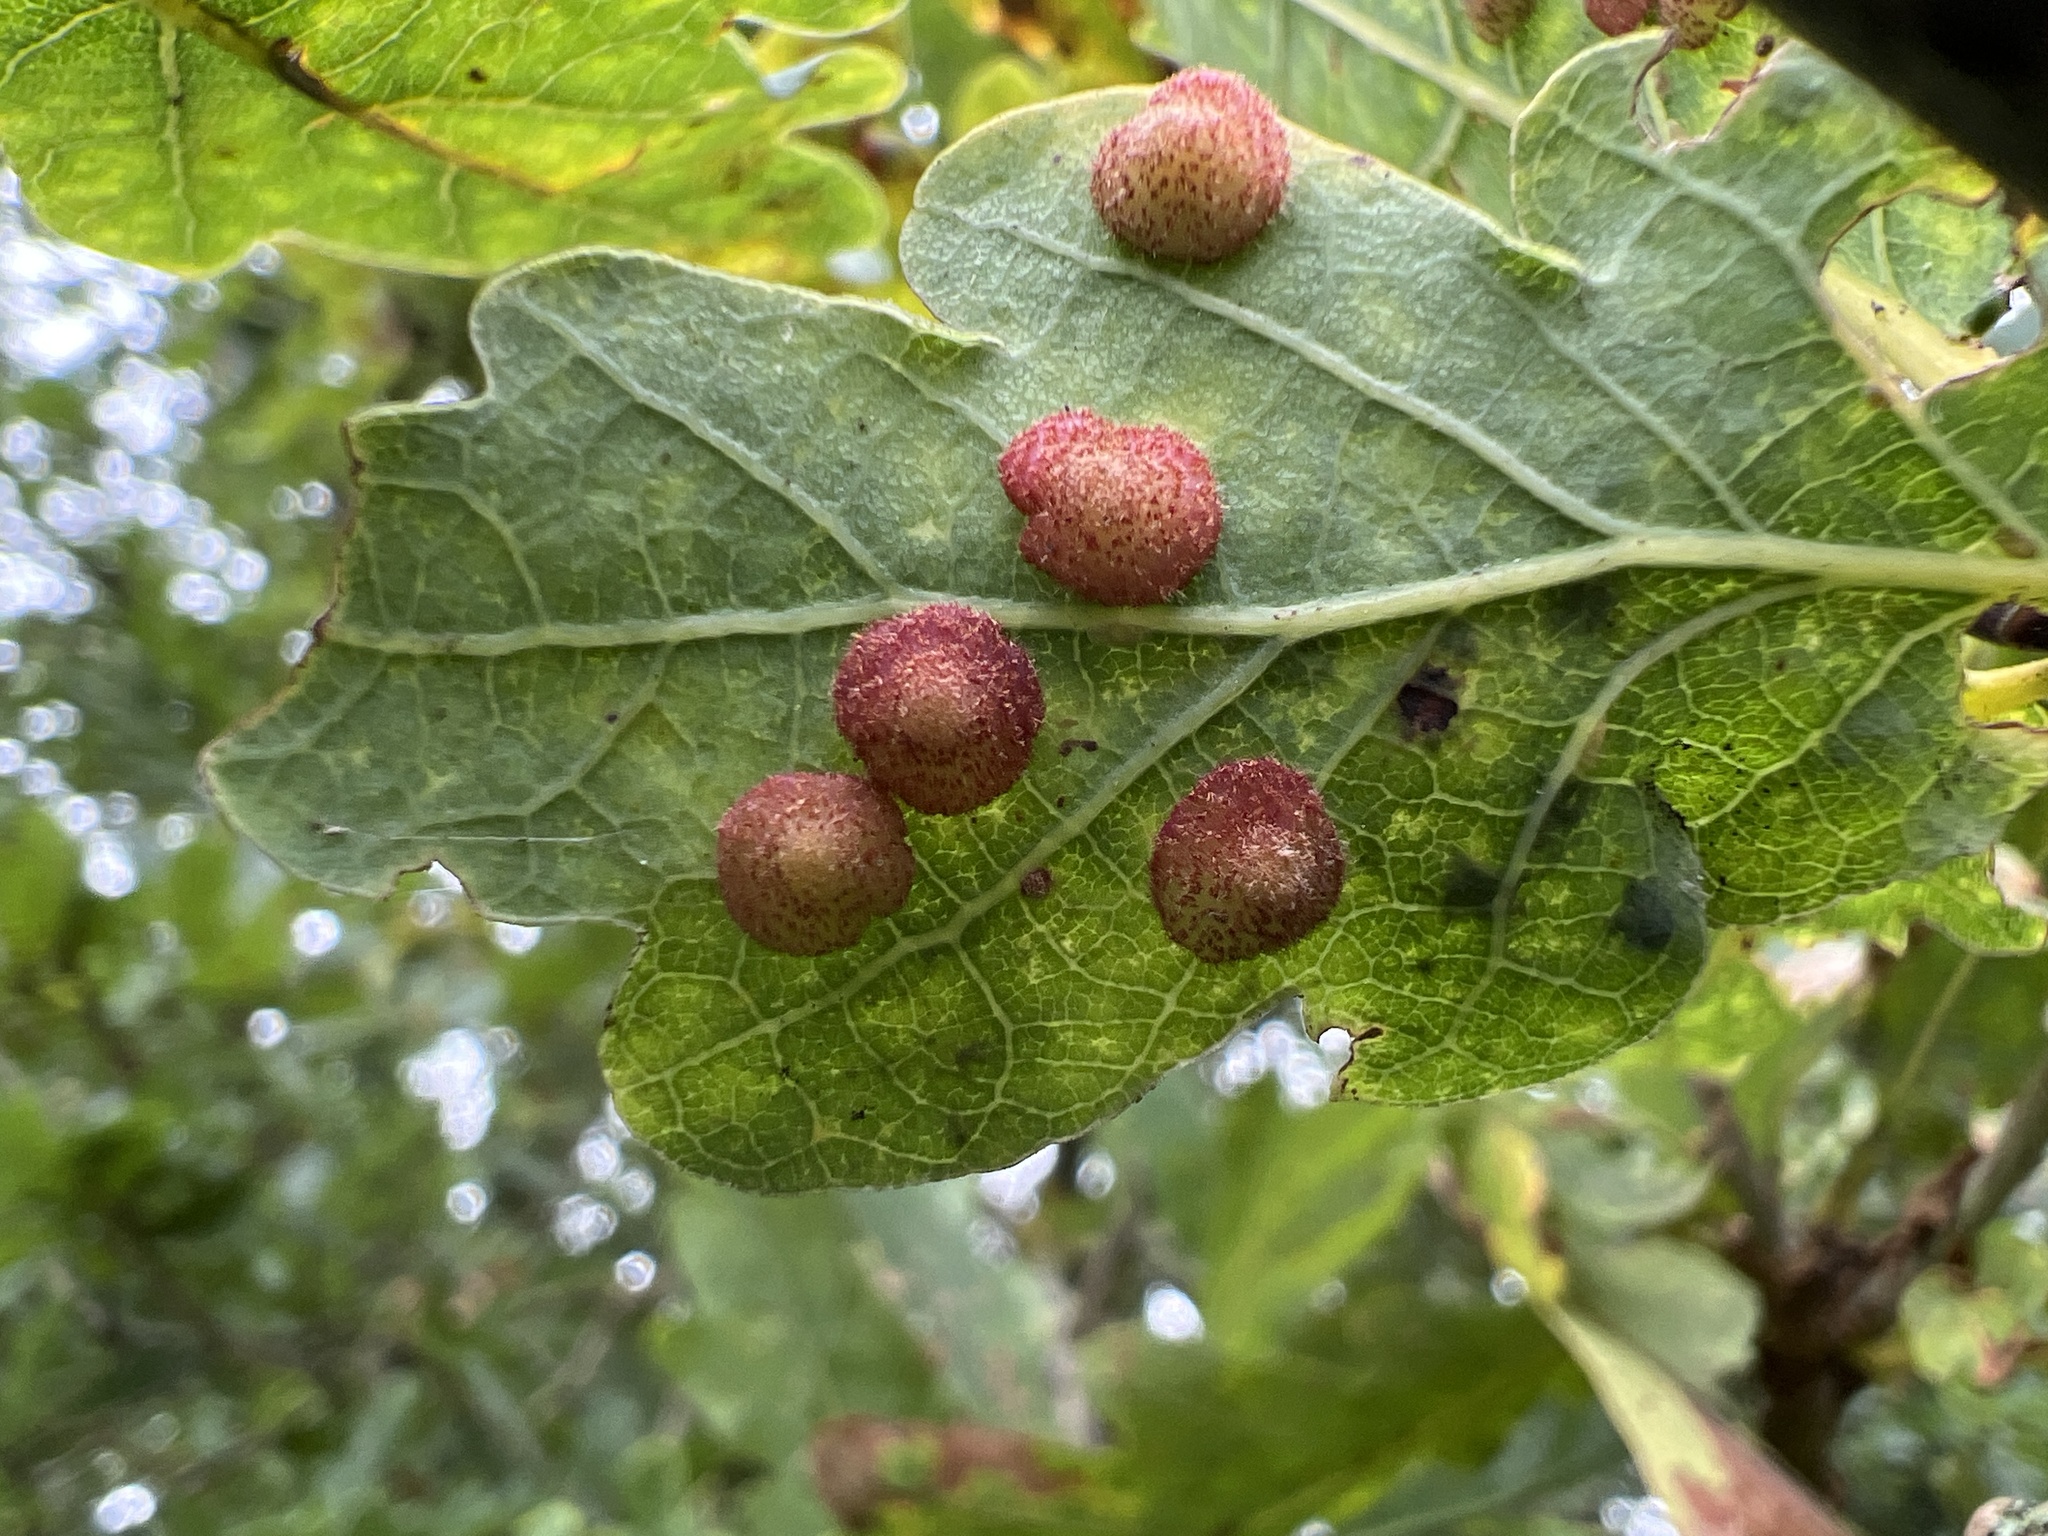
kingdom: Animalia
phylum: Arthropoda
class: Insecta
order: Hymenoptera
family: Cynipidae
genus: Neuroterus
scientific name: Neuroterus quercusbaccarum
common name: Common spangle gall
